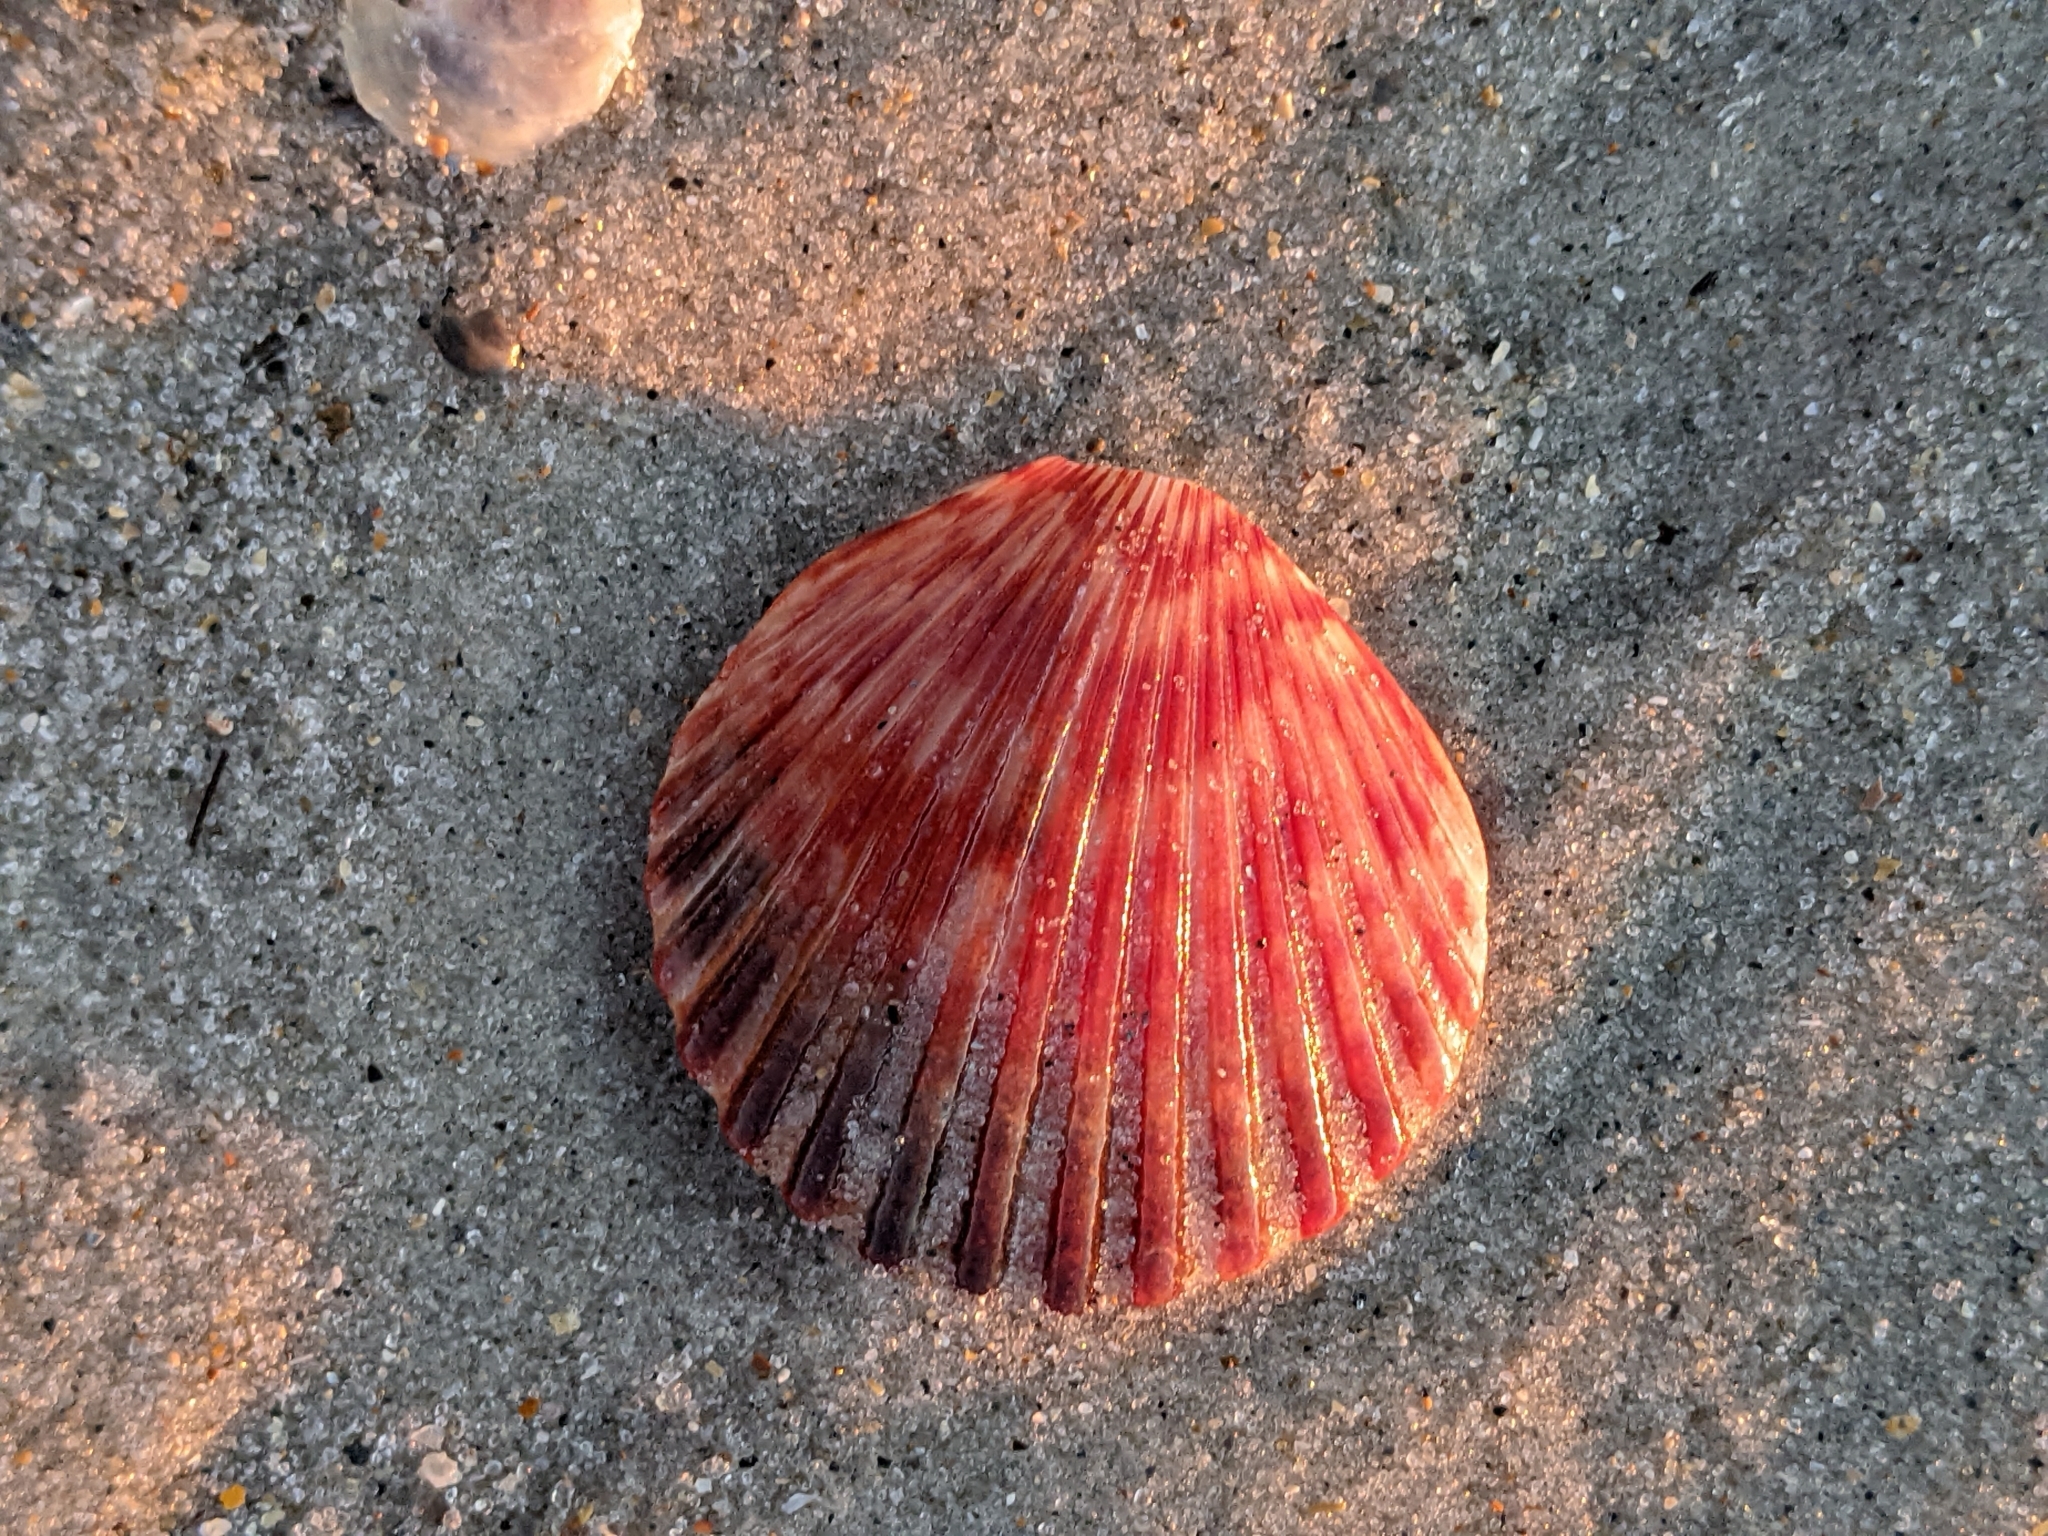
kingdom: Animalia
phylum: Mollusca
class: Bivalvia
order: Pectinida
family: Pectinidae
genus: Argopecten
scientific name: Argopecten gibbus
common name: Atlantic calico scallop
